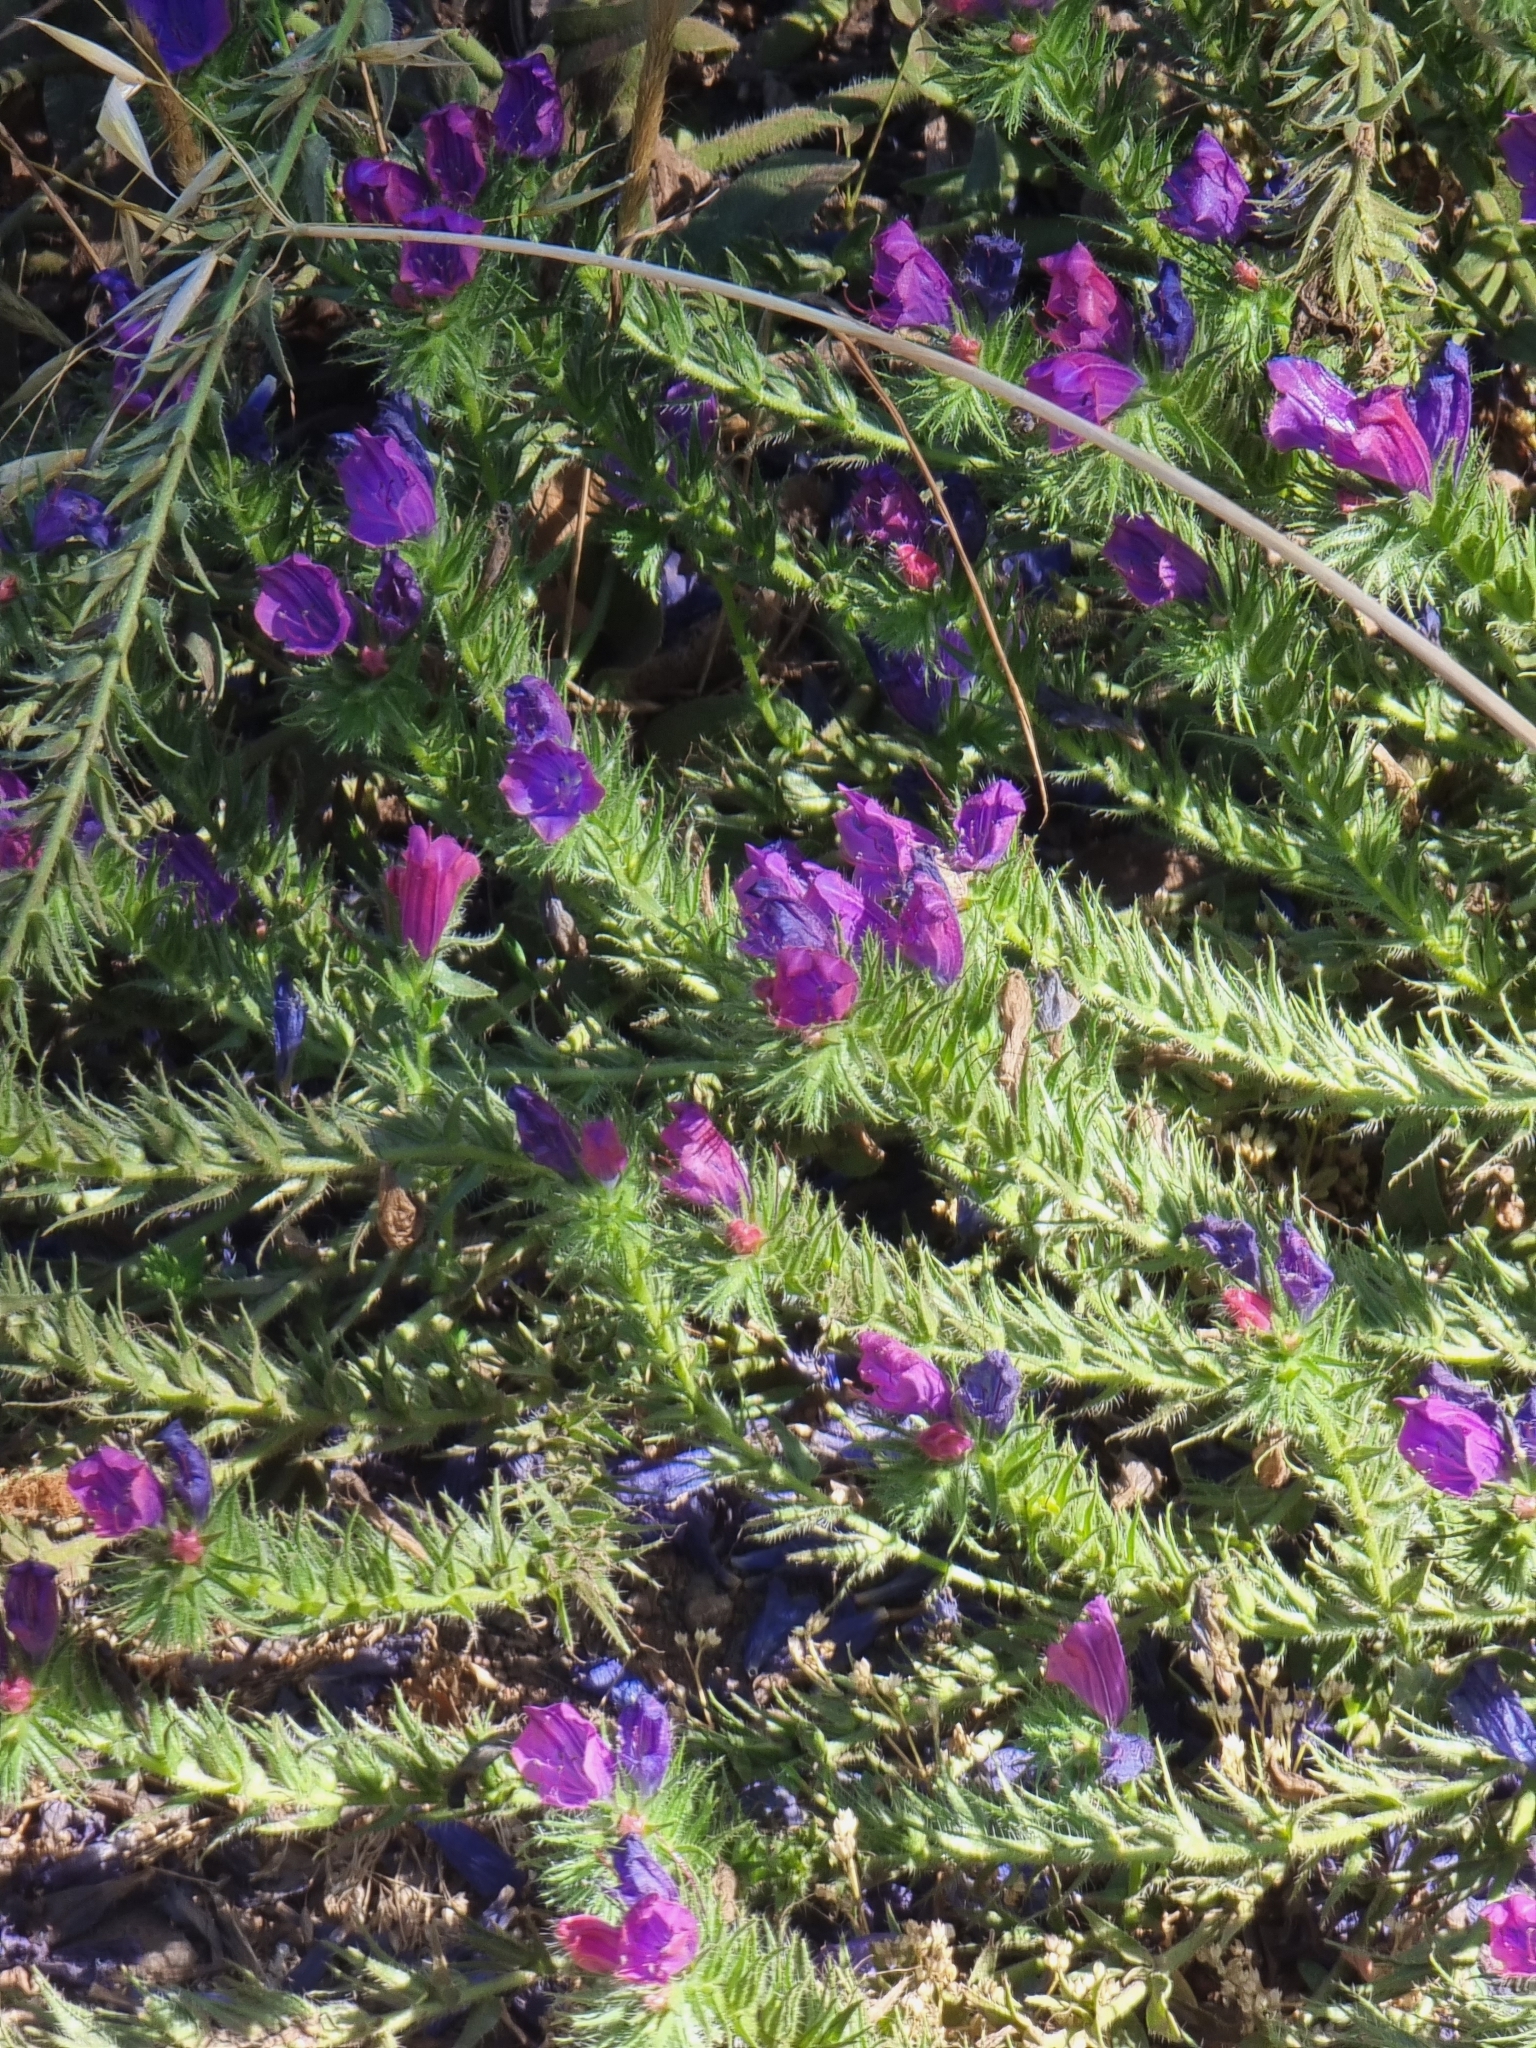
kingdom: Plantae
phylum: Tracheophyta
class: Magnoliopsida
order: Boraginales
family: Boraginaceae
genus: Echium
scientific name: Echium plantagineum
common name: Purple viper's-bugloss
